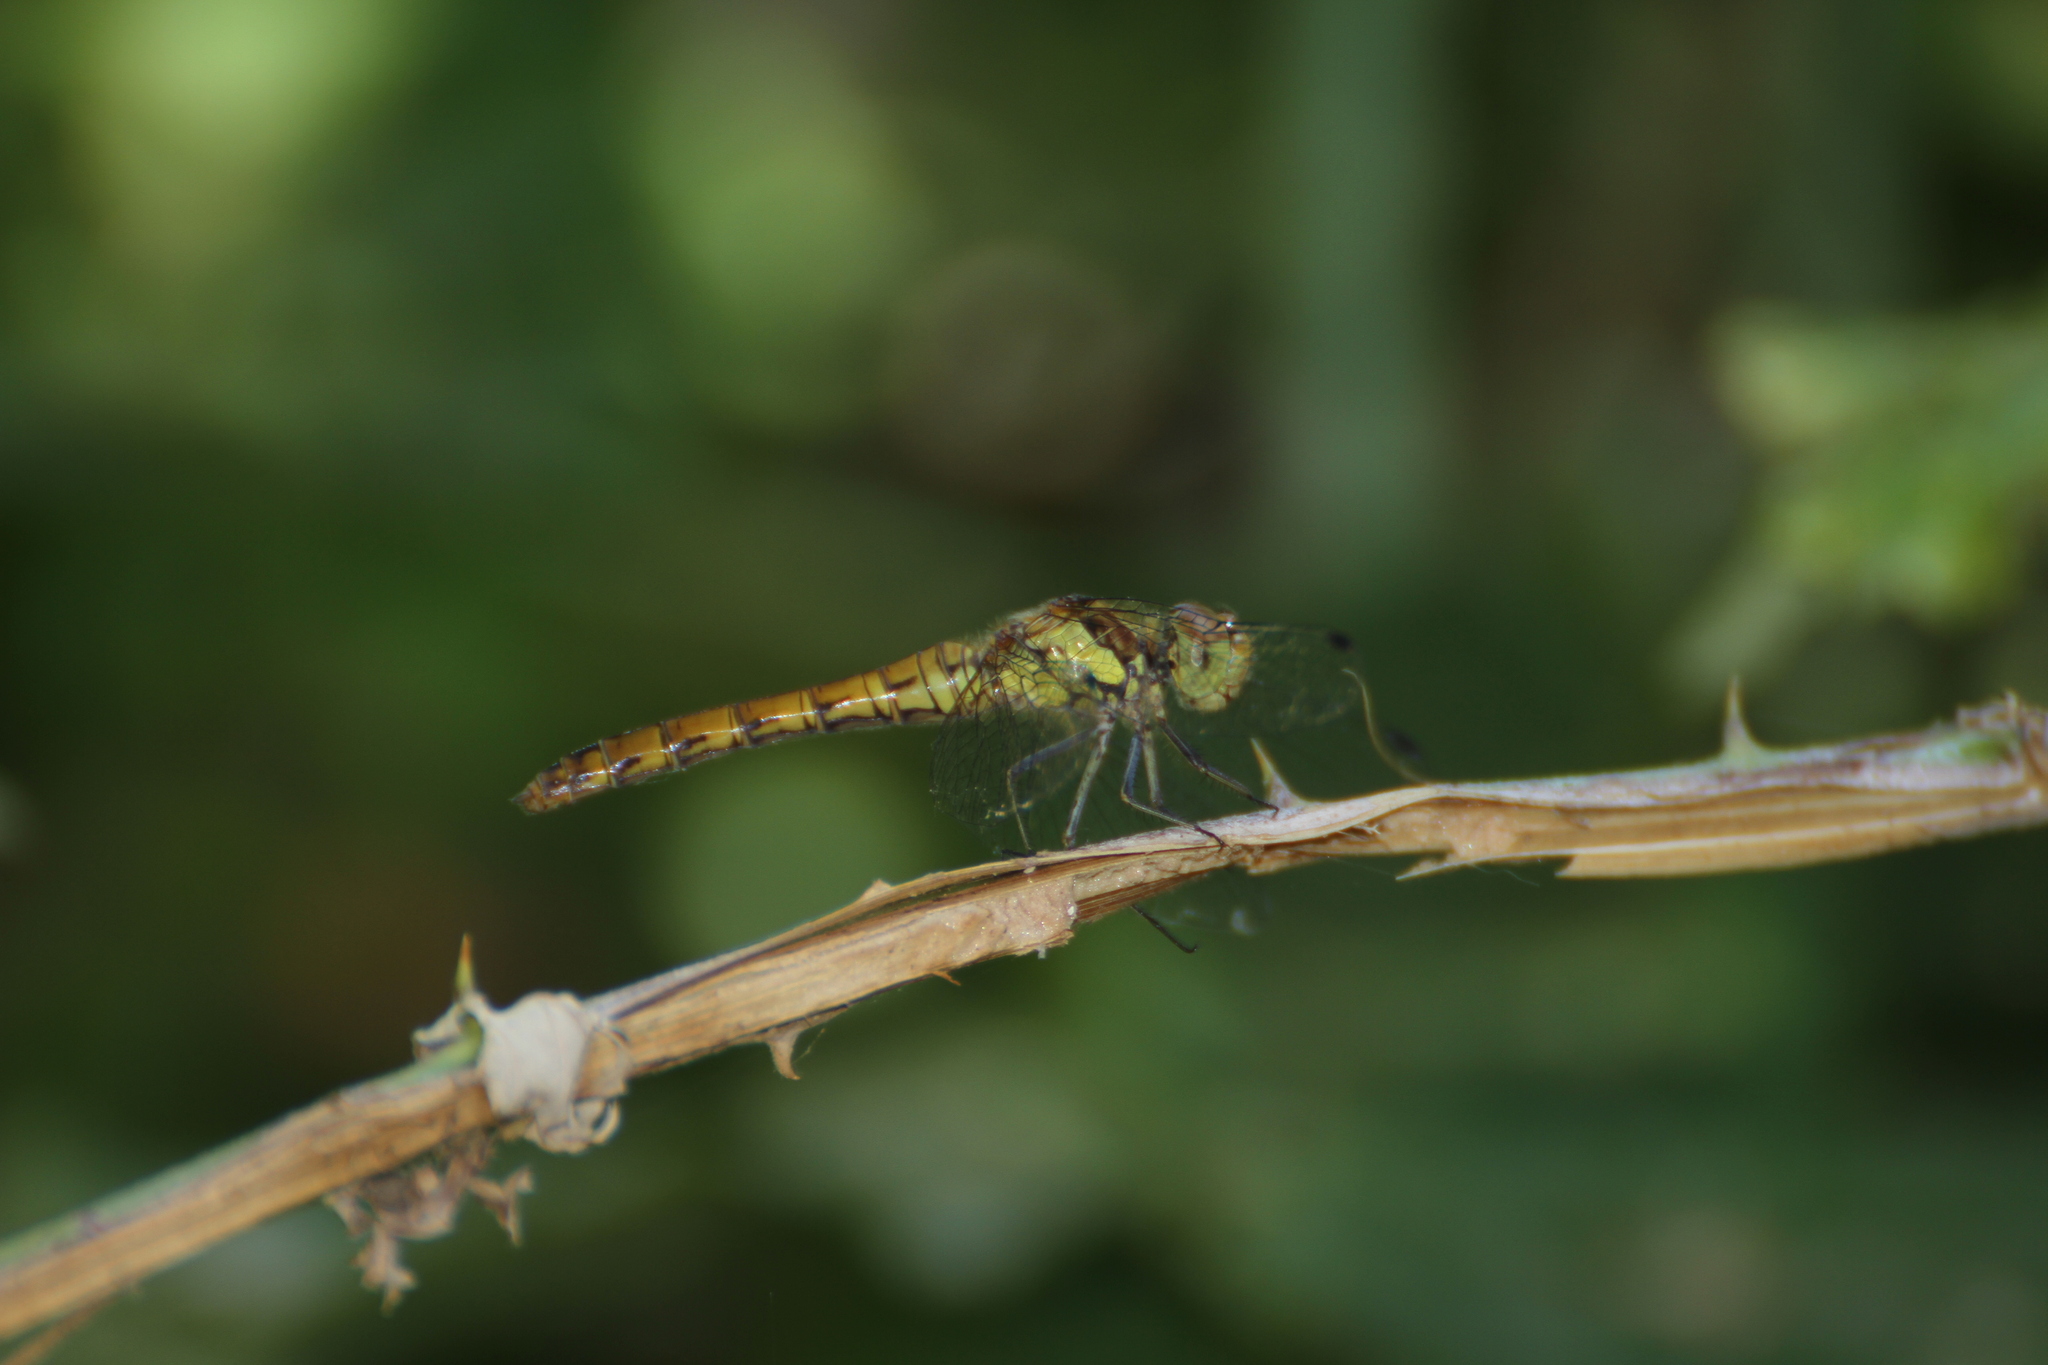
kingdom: Animalia
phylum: Arthropoda
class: Insecta
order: Odonata
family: Libellulidae
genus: Sympetrum
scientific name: Sympetrum striolatum
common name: Common darter
